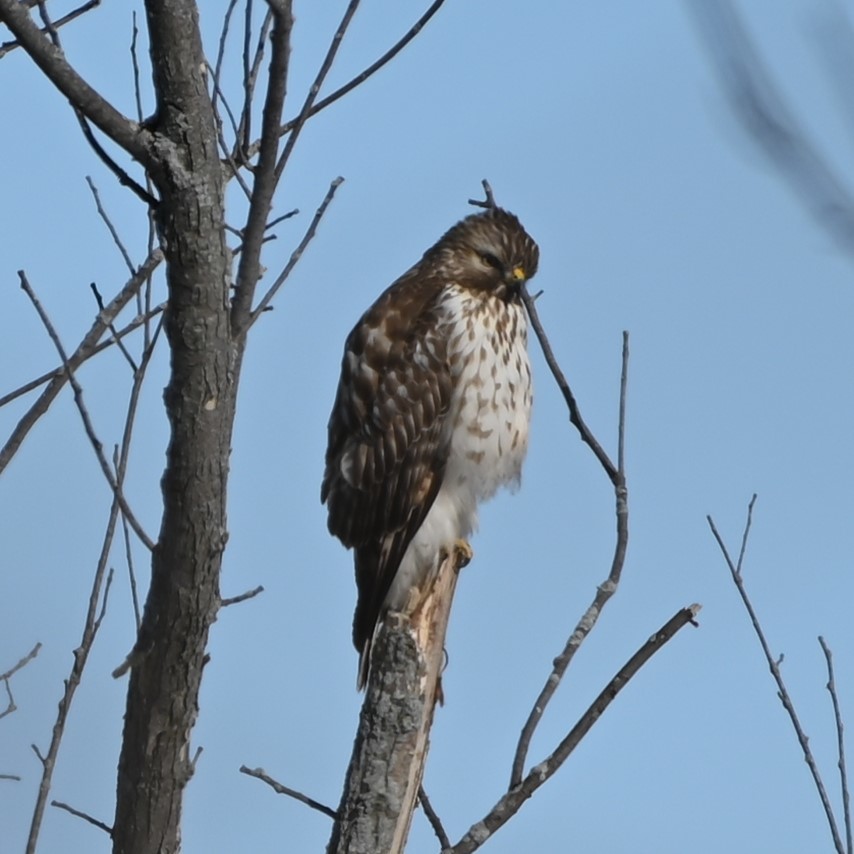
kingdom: Animalia
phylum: Chordata
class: Aves
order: Accipitriformes
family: Accipitridae
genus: Buteo
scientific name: Buteo lineatus
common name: Red-shouldered hawk
